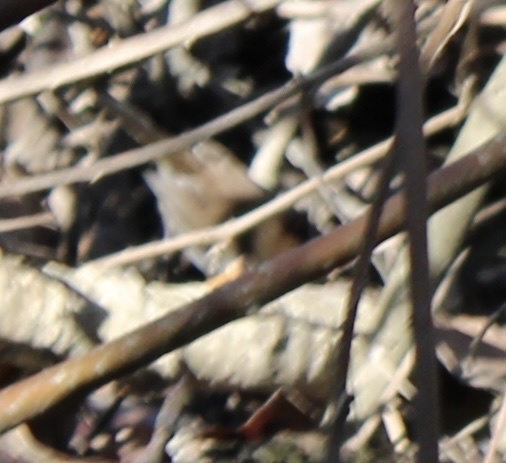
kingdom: Animalia
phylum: Chordata
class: Aves
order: Passeriformes
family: Troglodytidae
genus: Thryomanes
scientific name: Thryomanes bewickii
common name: Bewick's wren
